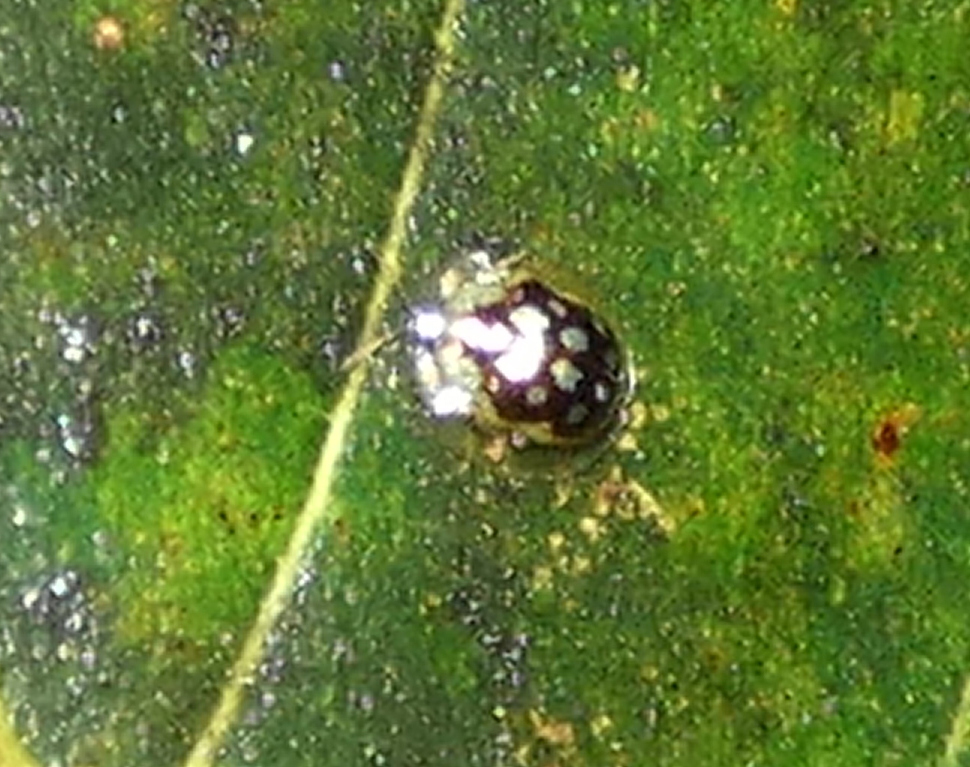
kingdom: Animalia
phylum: Arthropoda
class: Insecta
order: Coleoptera
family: Chrysomelidae
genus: Plagiometriona
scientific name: Plagiometriona microcera
